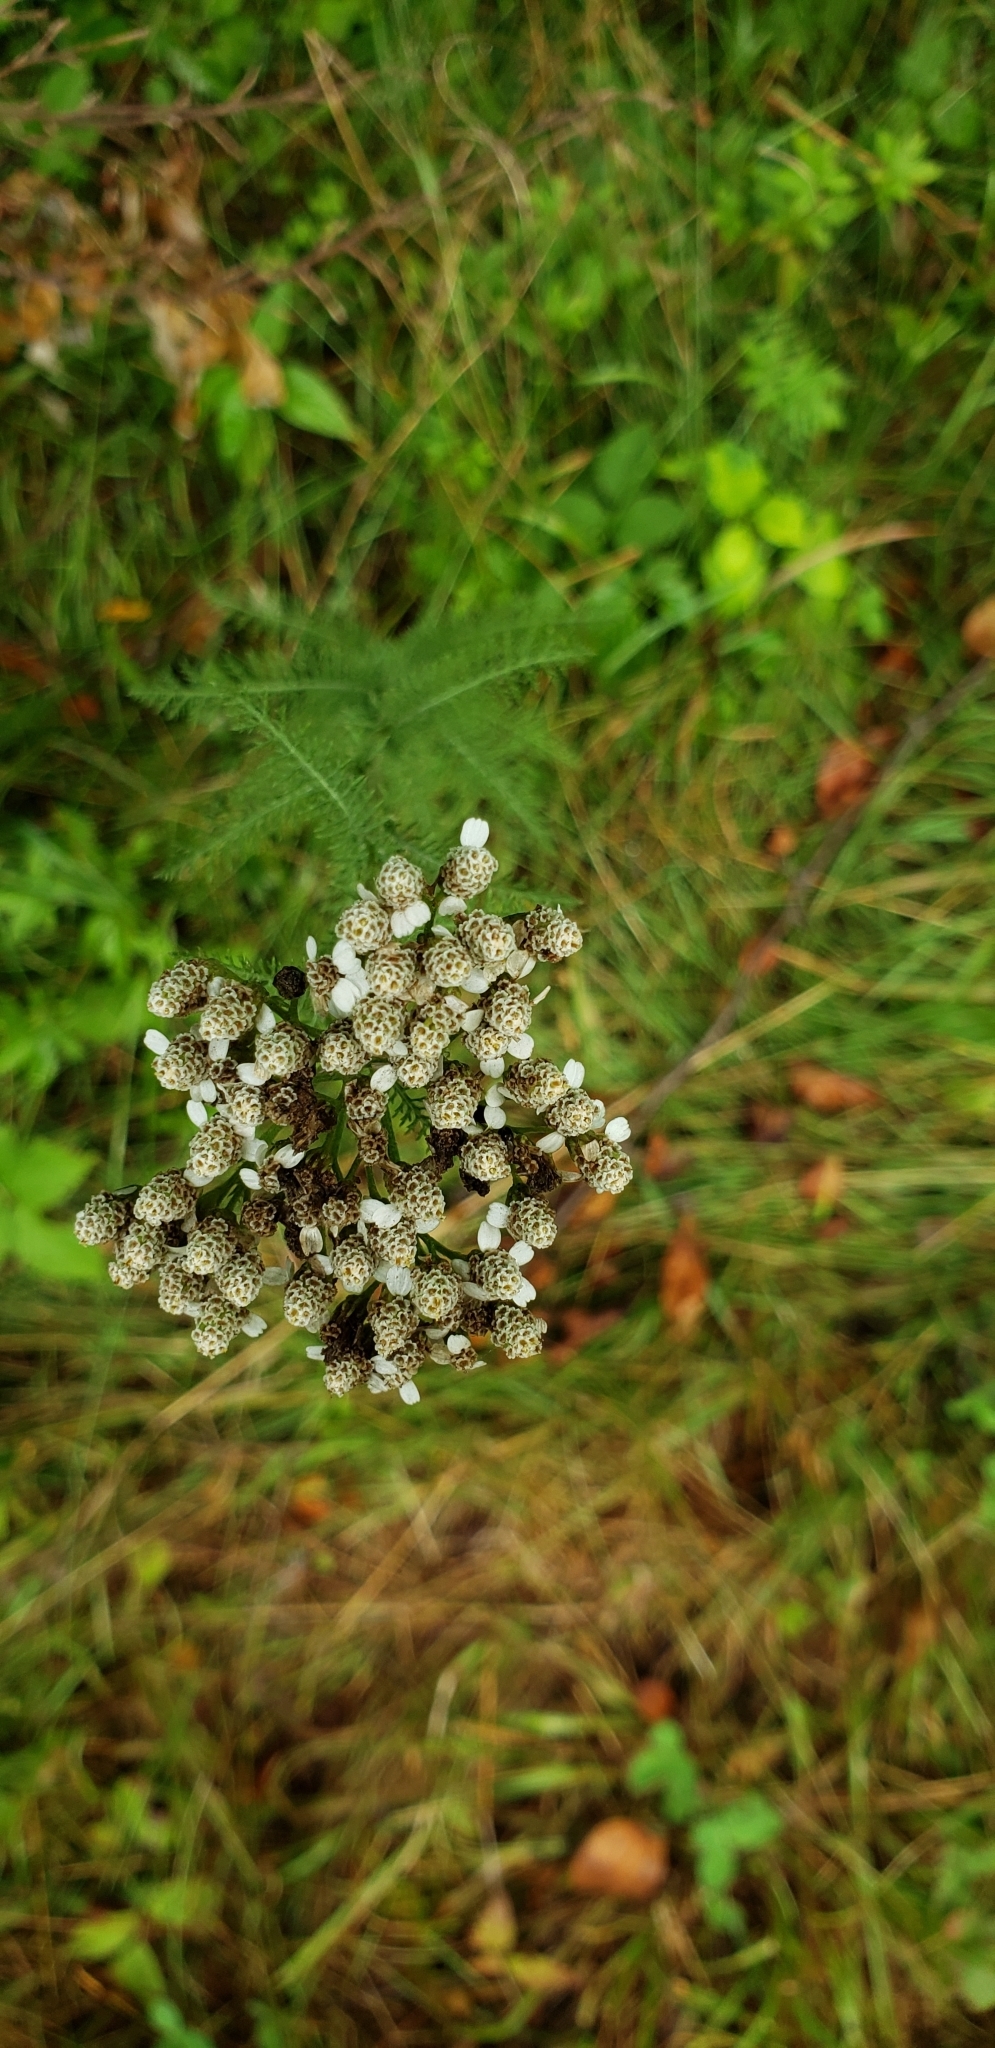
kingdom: Plantae
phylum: Tracheophyta
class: Magnoliopsida
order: Asterales
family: Asteraceae
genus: Achillea
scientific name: Achillea millefolium
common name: Yarrow
